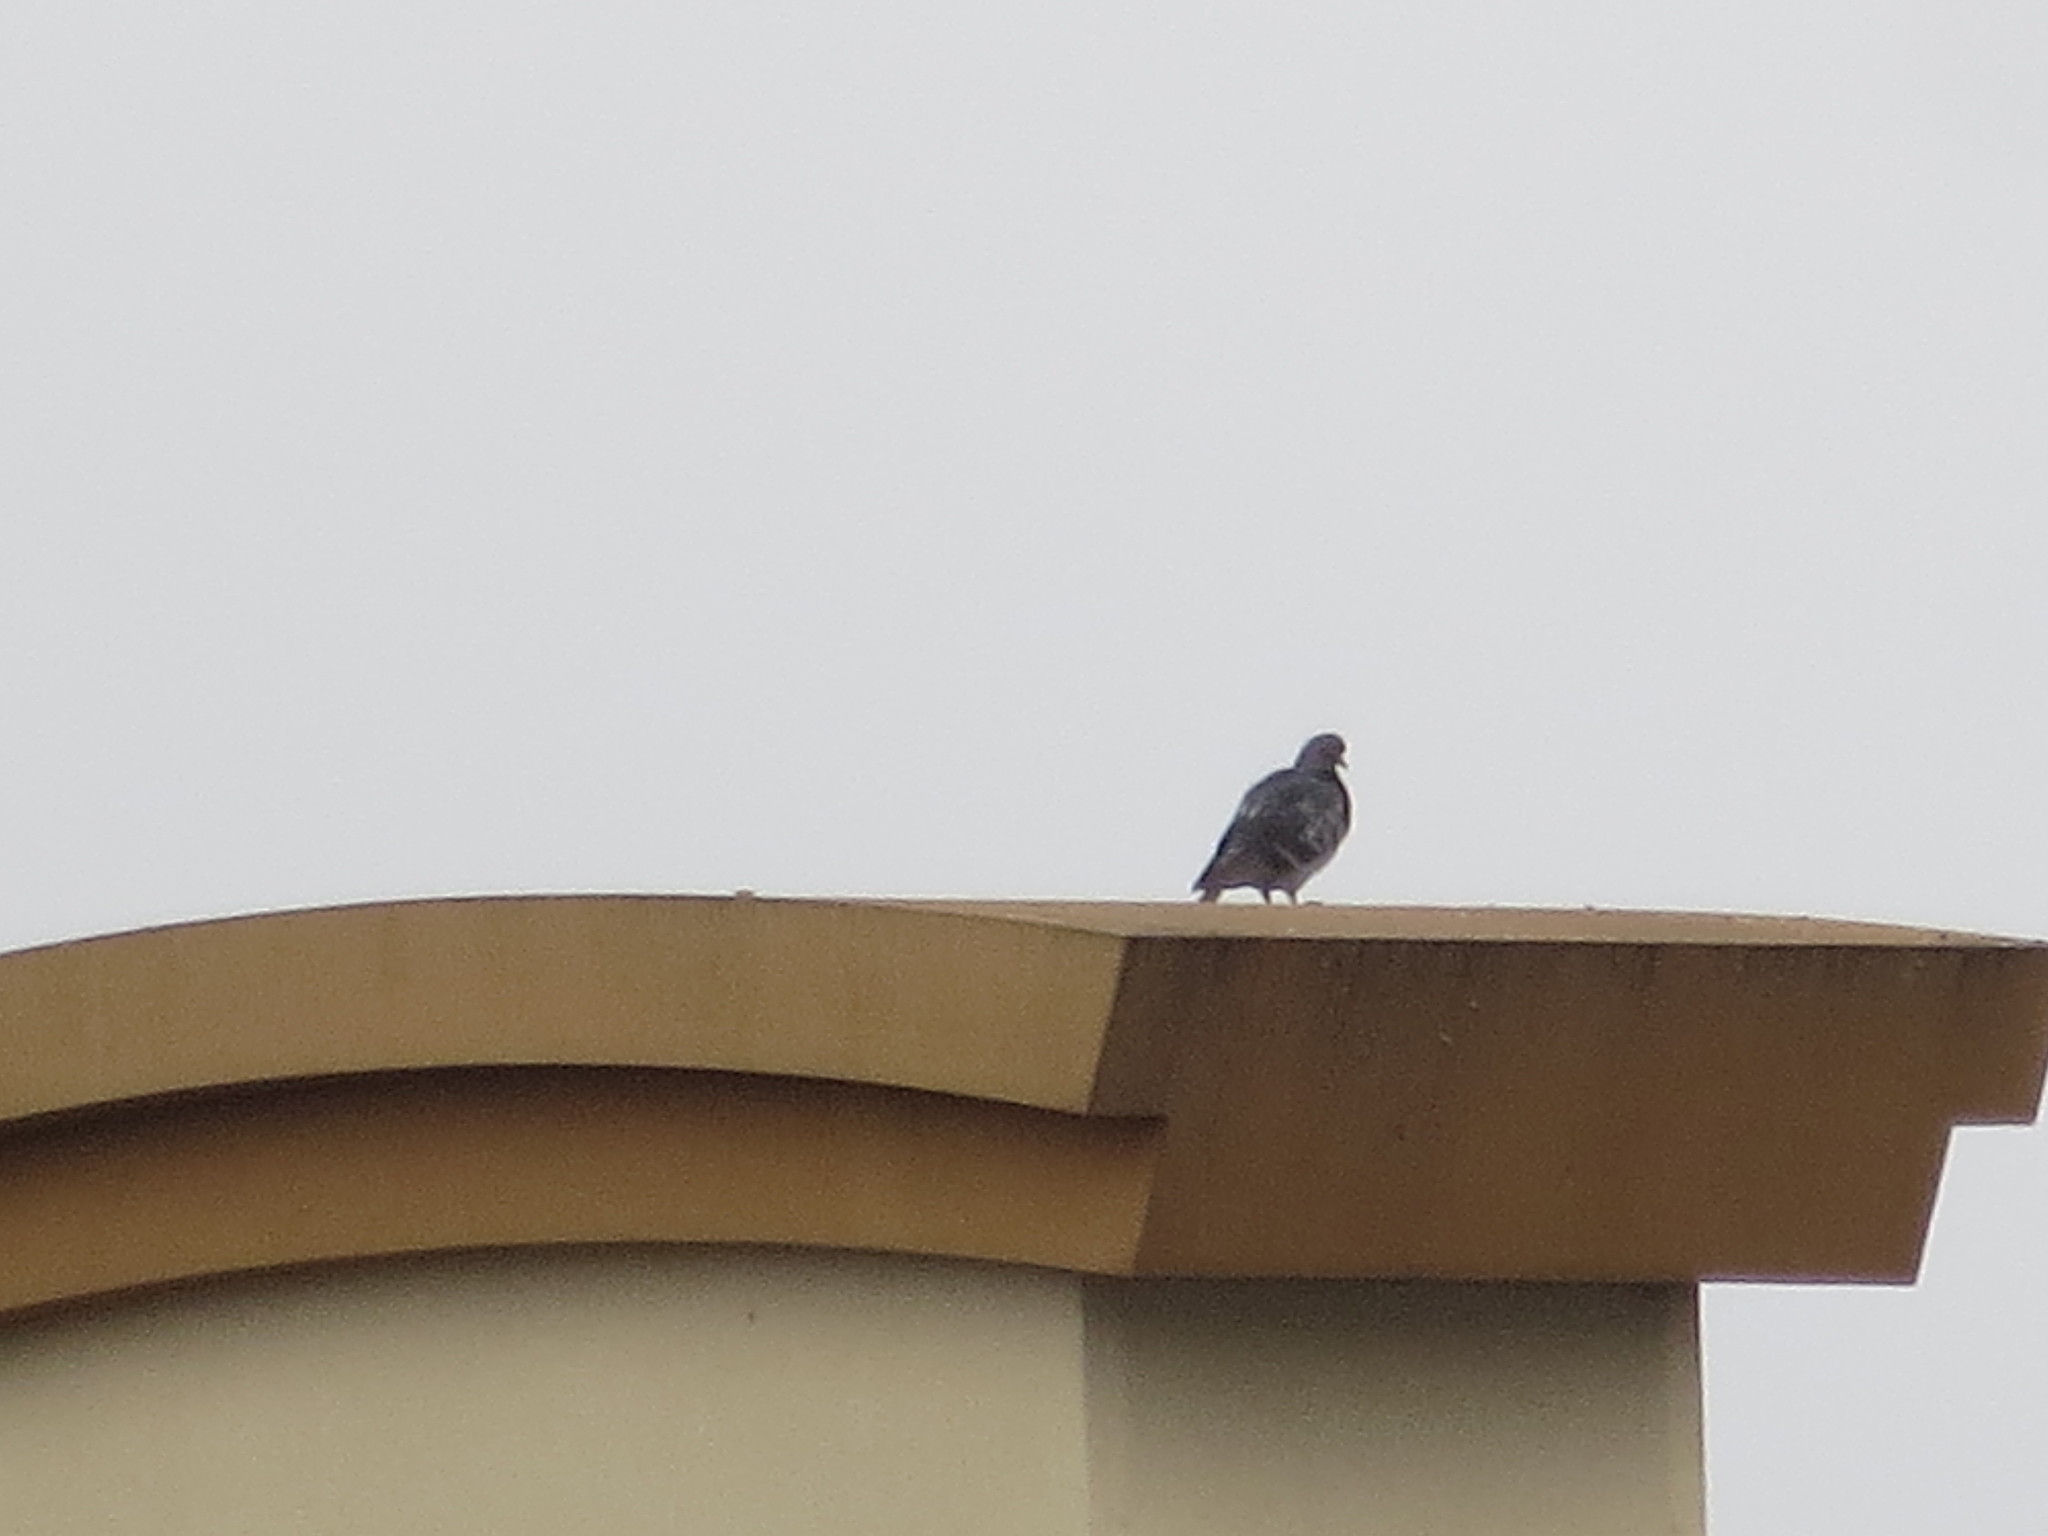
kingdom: Animalia
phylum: Chordata
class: Aves
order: Columbiformes
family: Columbidae
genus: Columba
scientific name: Columba livia
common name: Rock pigeon
